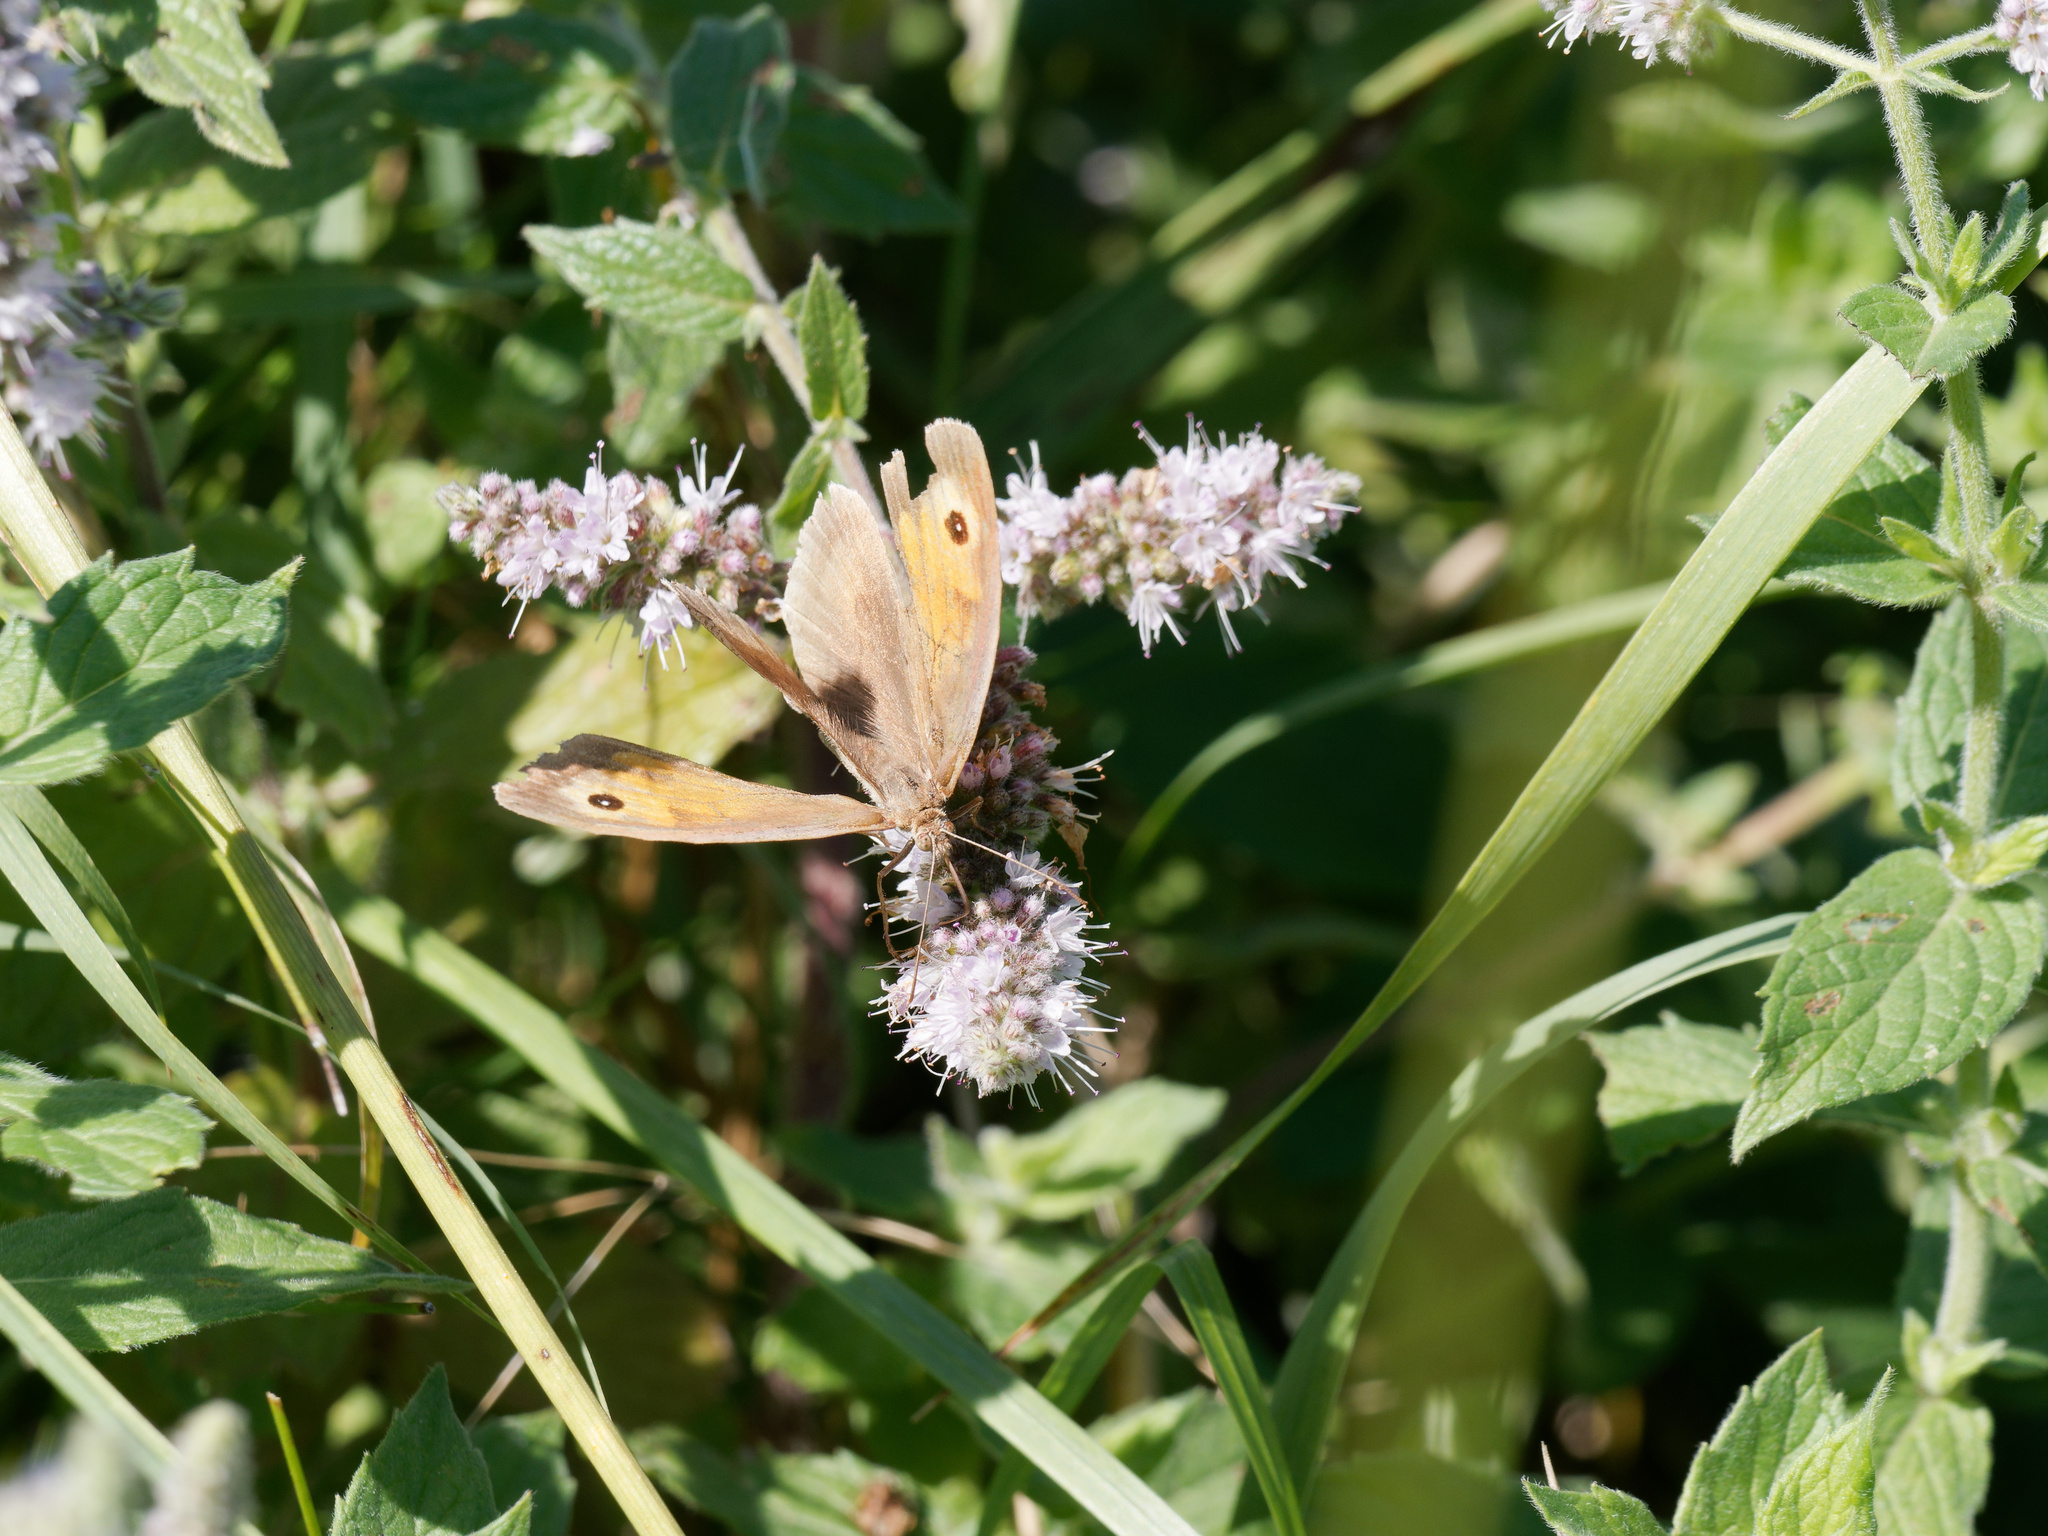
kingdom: Animalia
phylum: Arthropoda
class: Insecta
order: Lepidoptera
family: Nymphalidae
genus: Maniola
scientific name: Maniola jurtina
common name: Meadow brown
